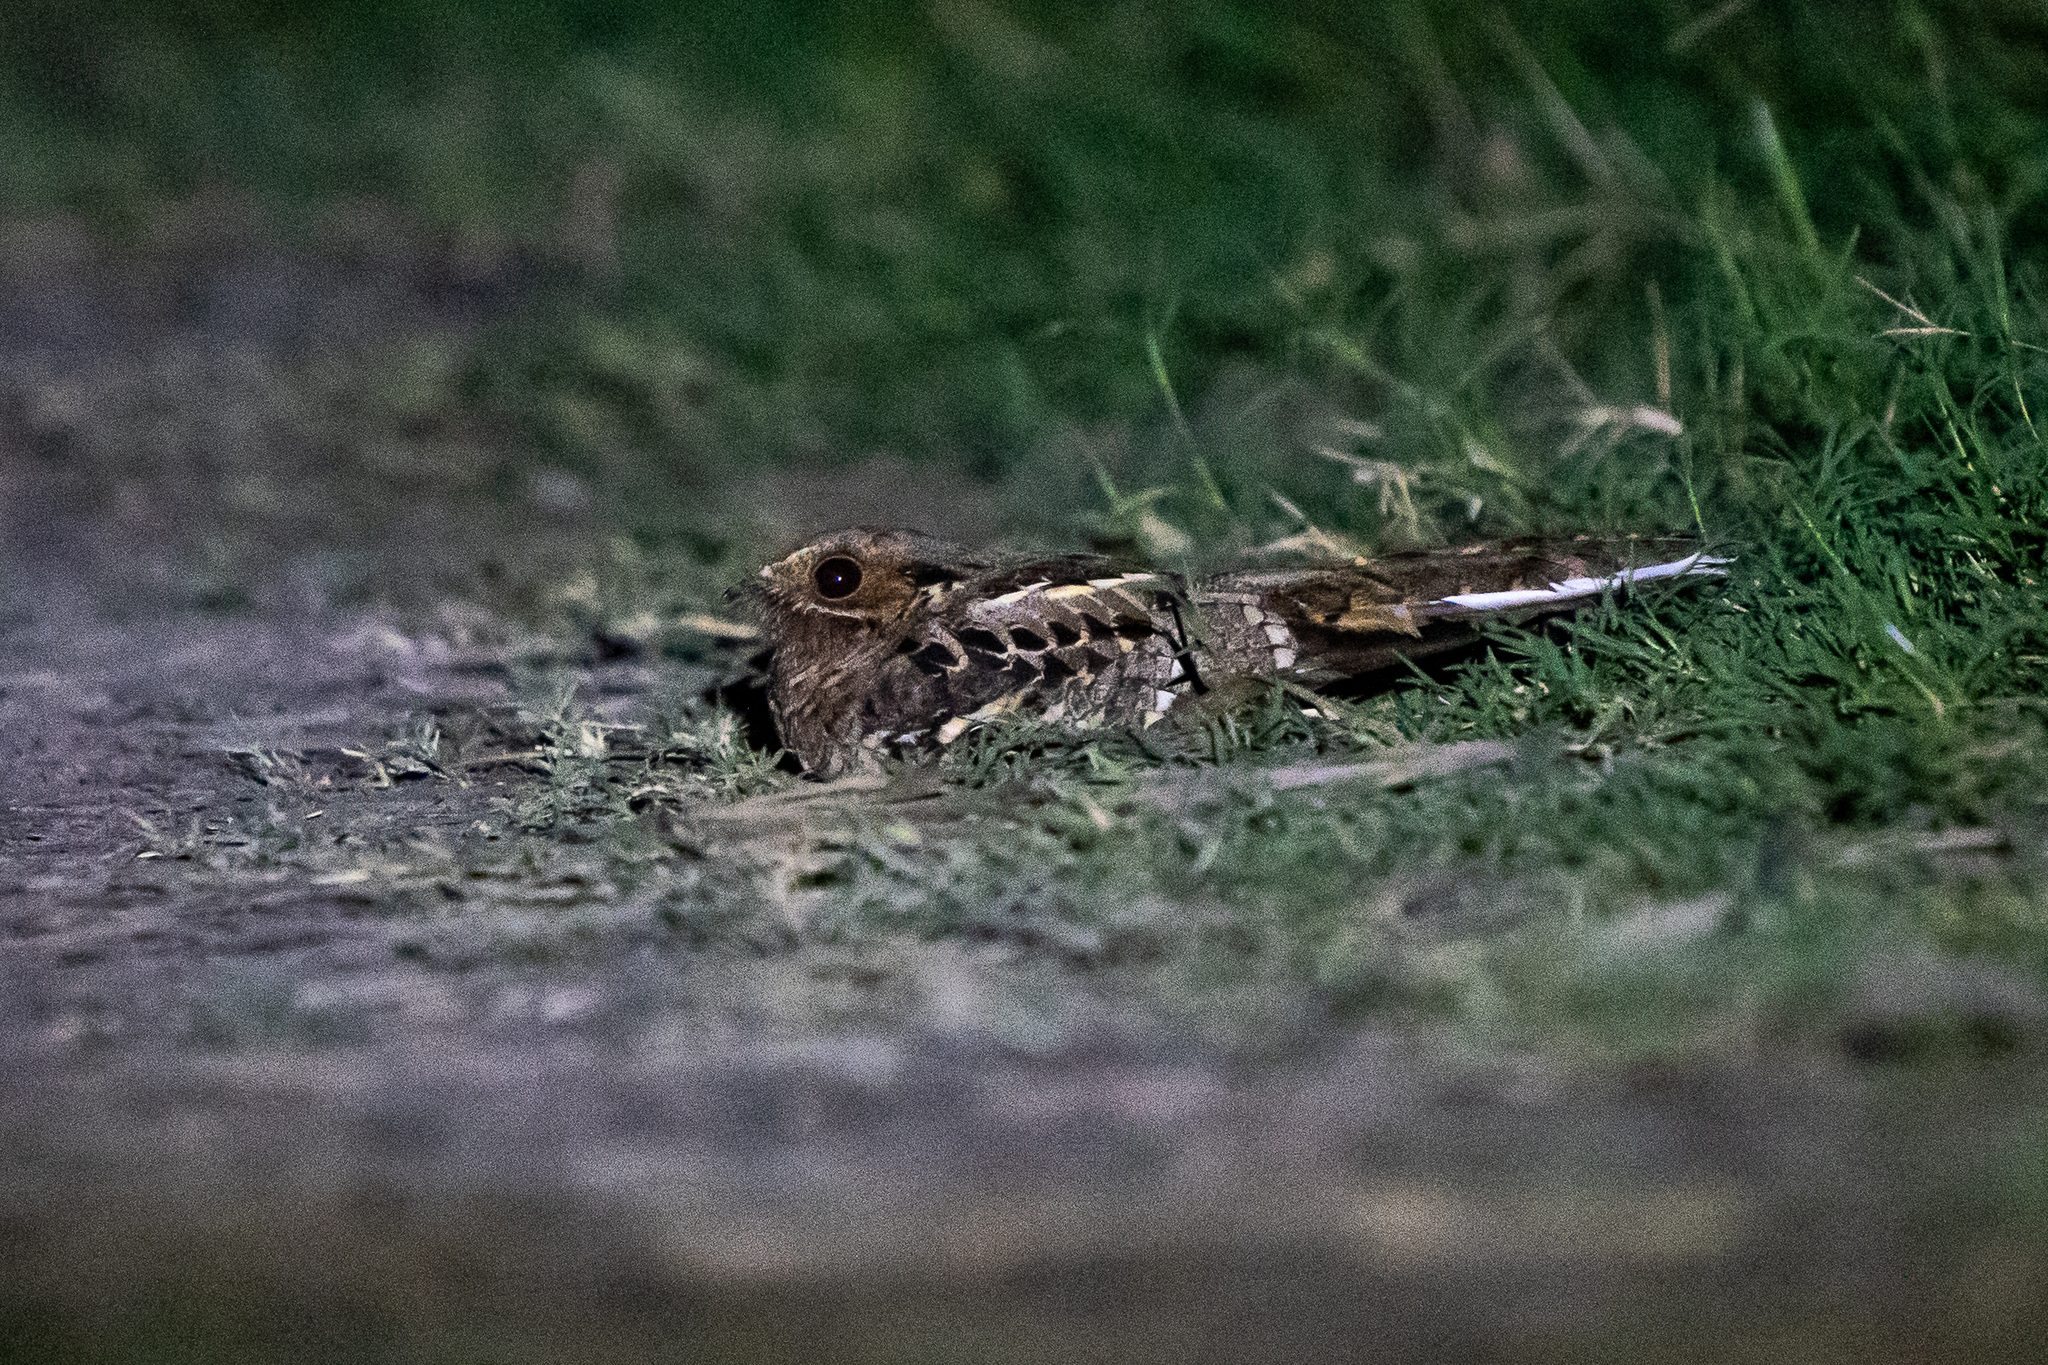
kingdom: Animalia
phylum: Chordata
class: Aves
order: Caprimulgiformes
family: Caprimulgidae
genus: Nyctidromus
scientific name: Nyctidromus albicollis
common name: Pauraque
